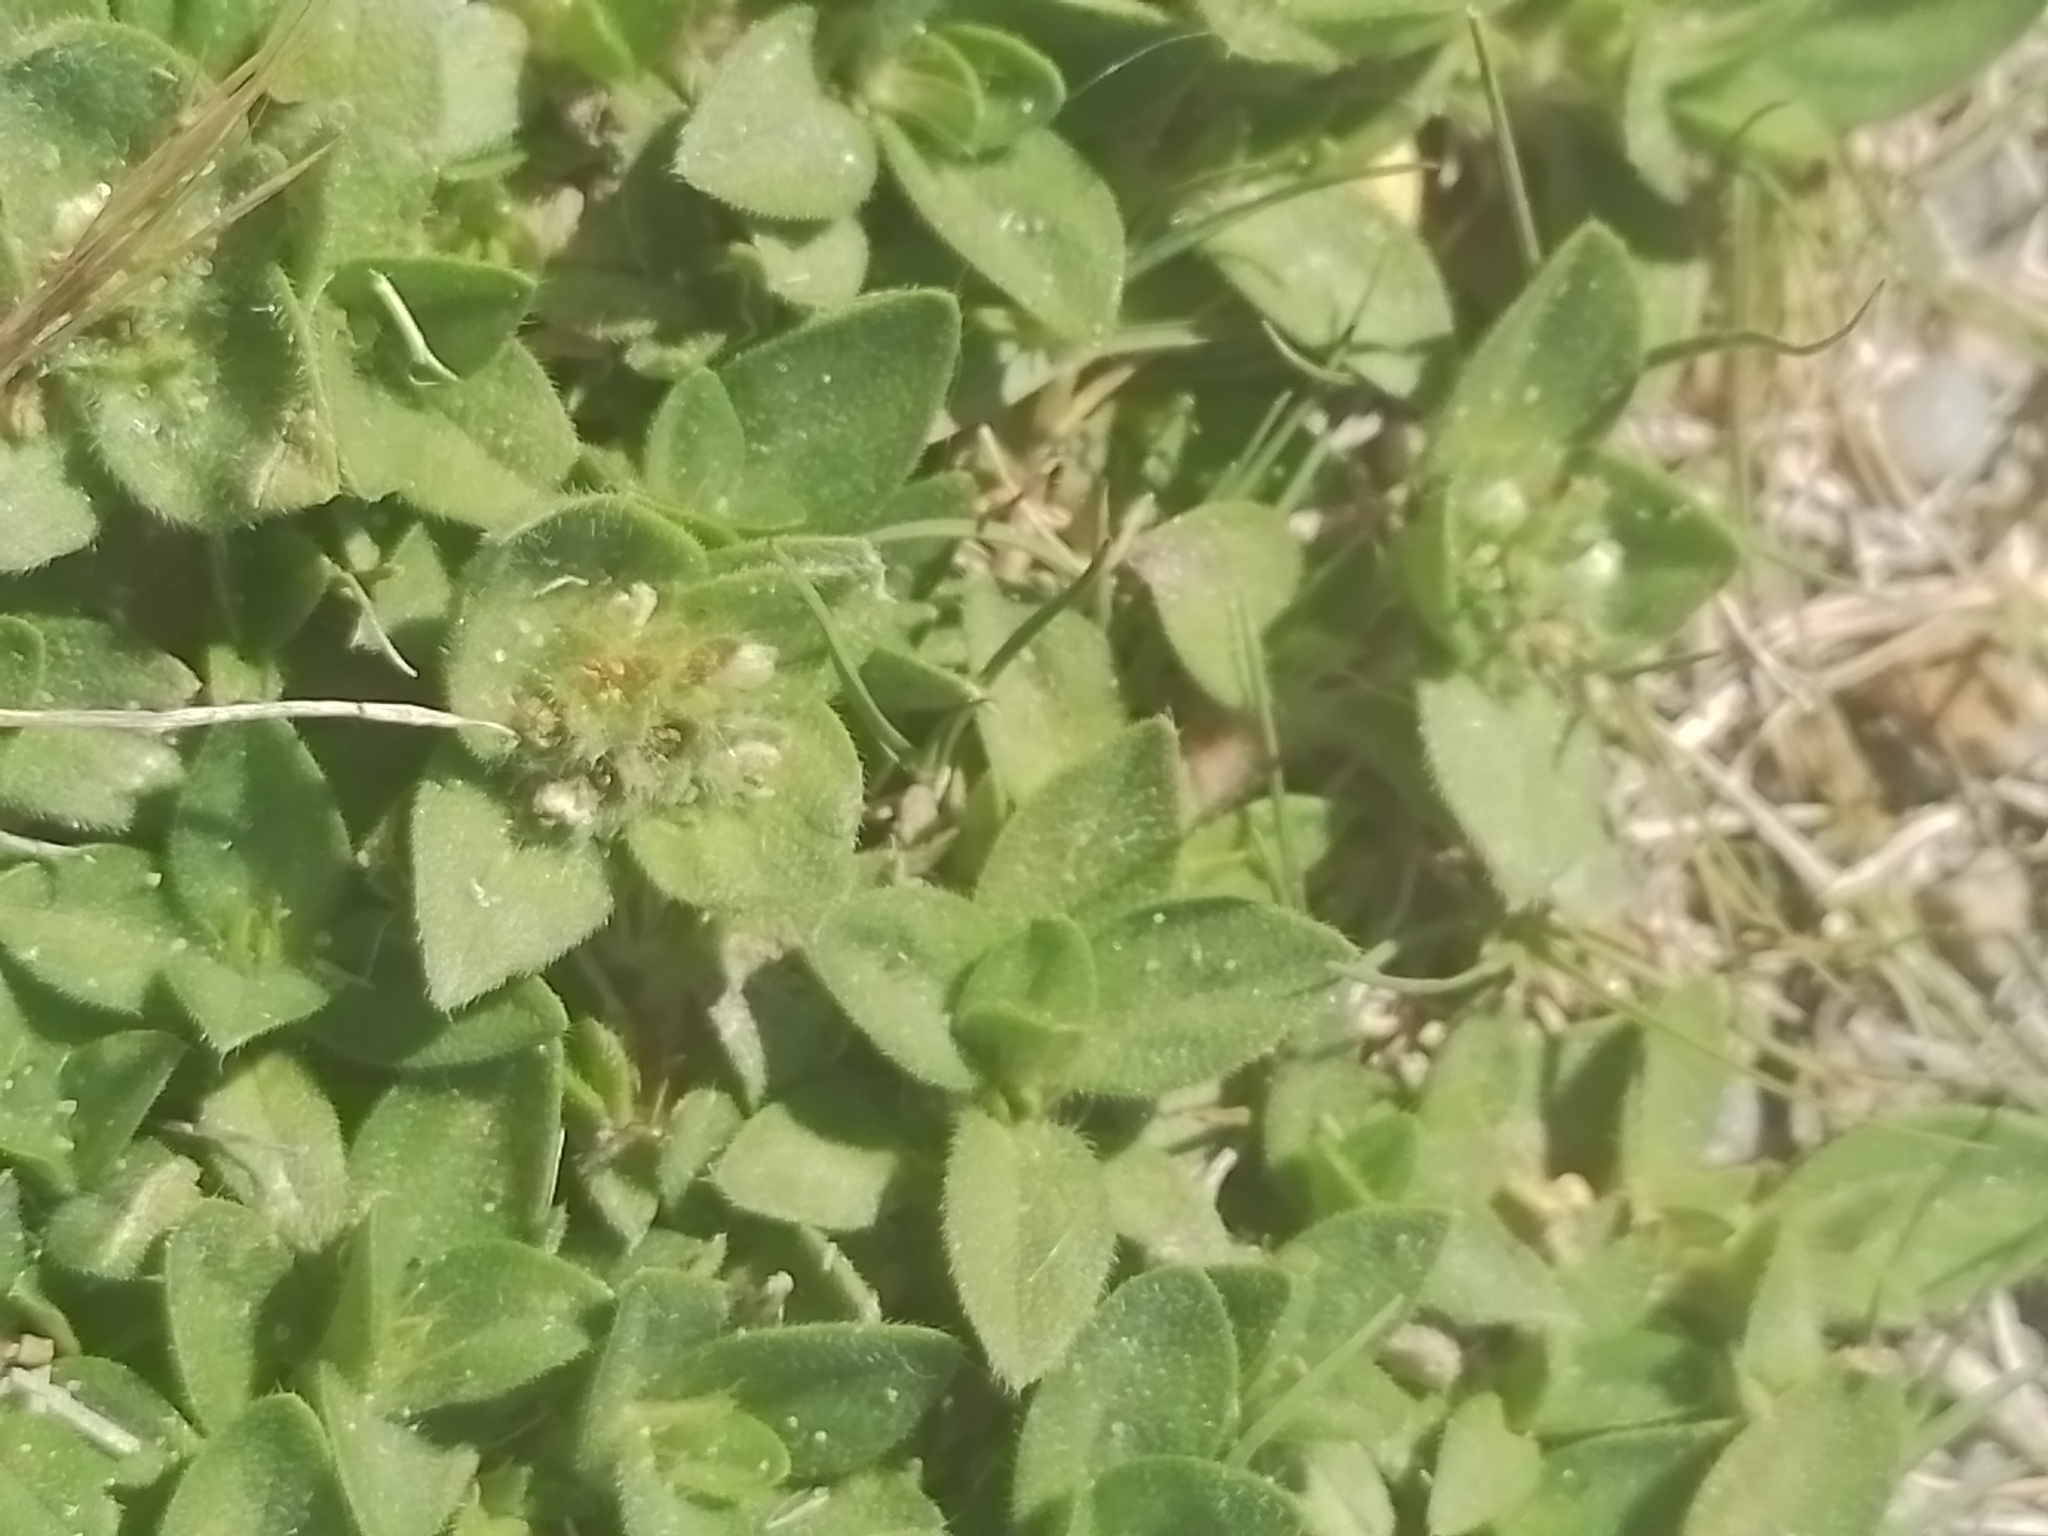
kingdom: Plantae
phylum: Tracheophyta
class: Magnoliopsida
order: Gentianales
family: Rubiaceae
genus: Richardia
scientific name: Richardia humistrata
